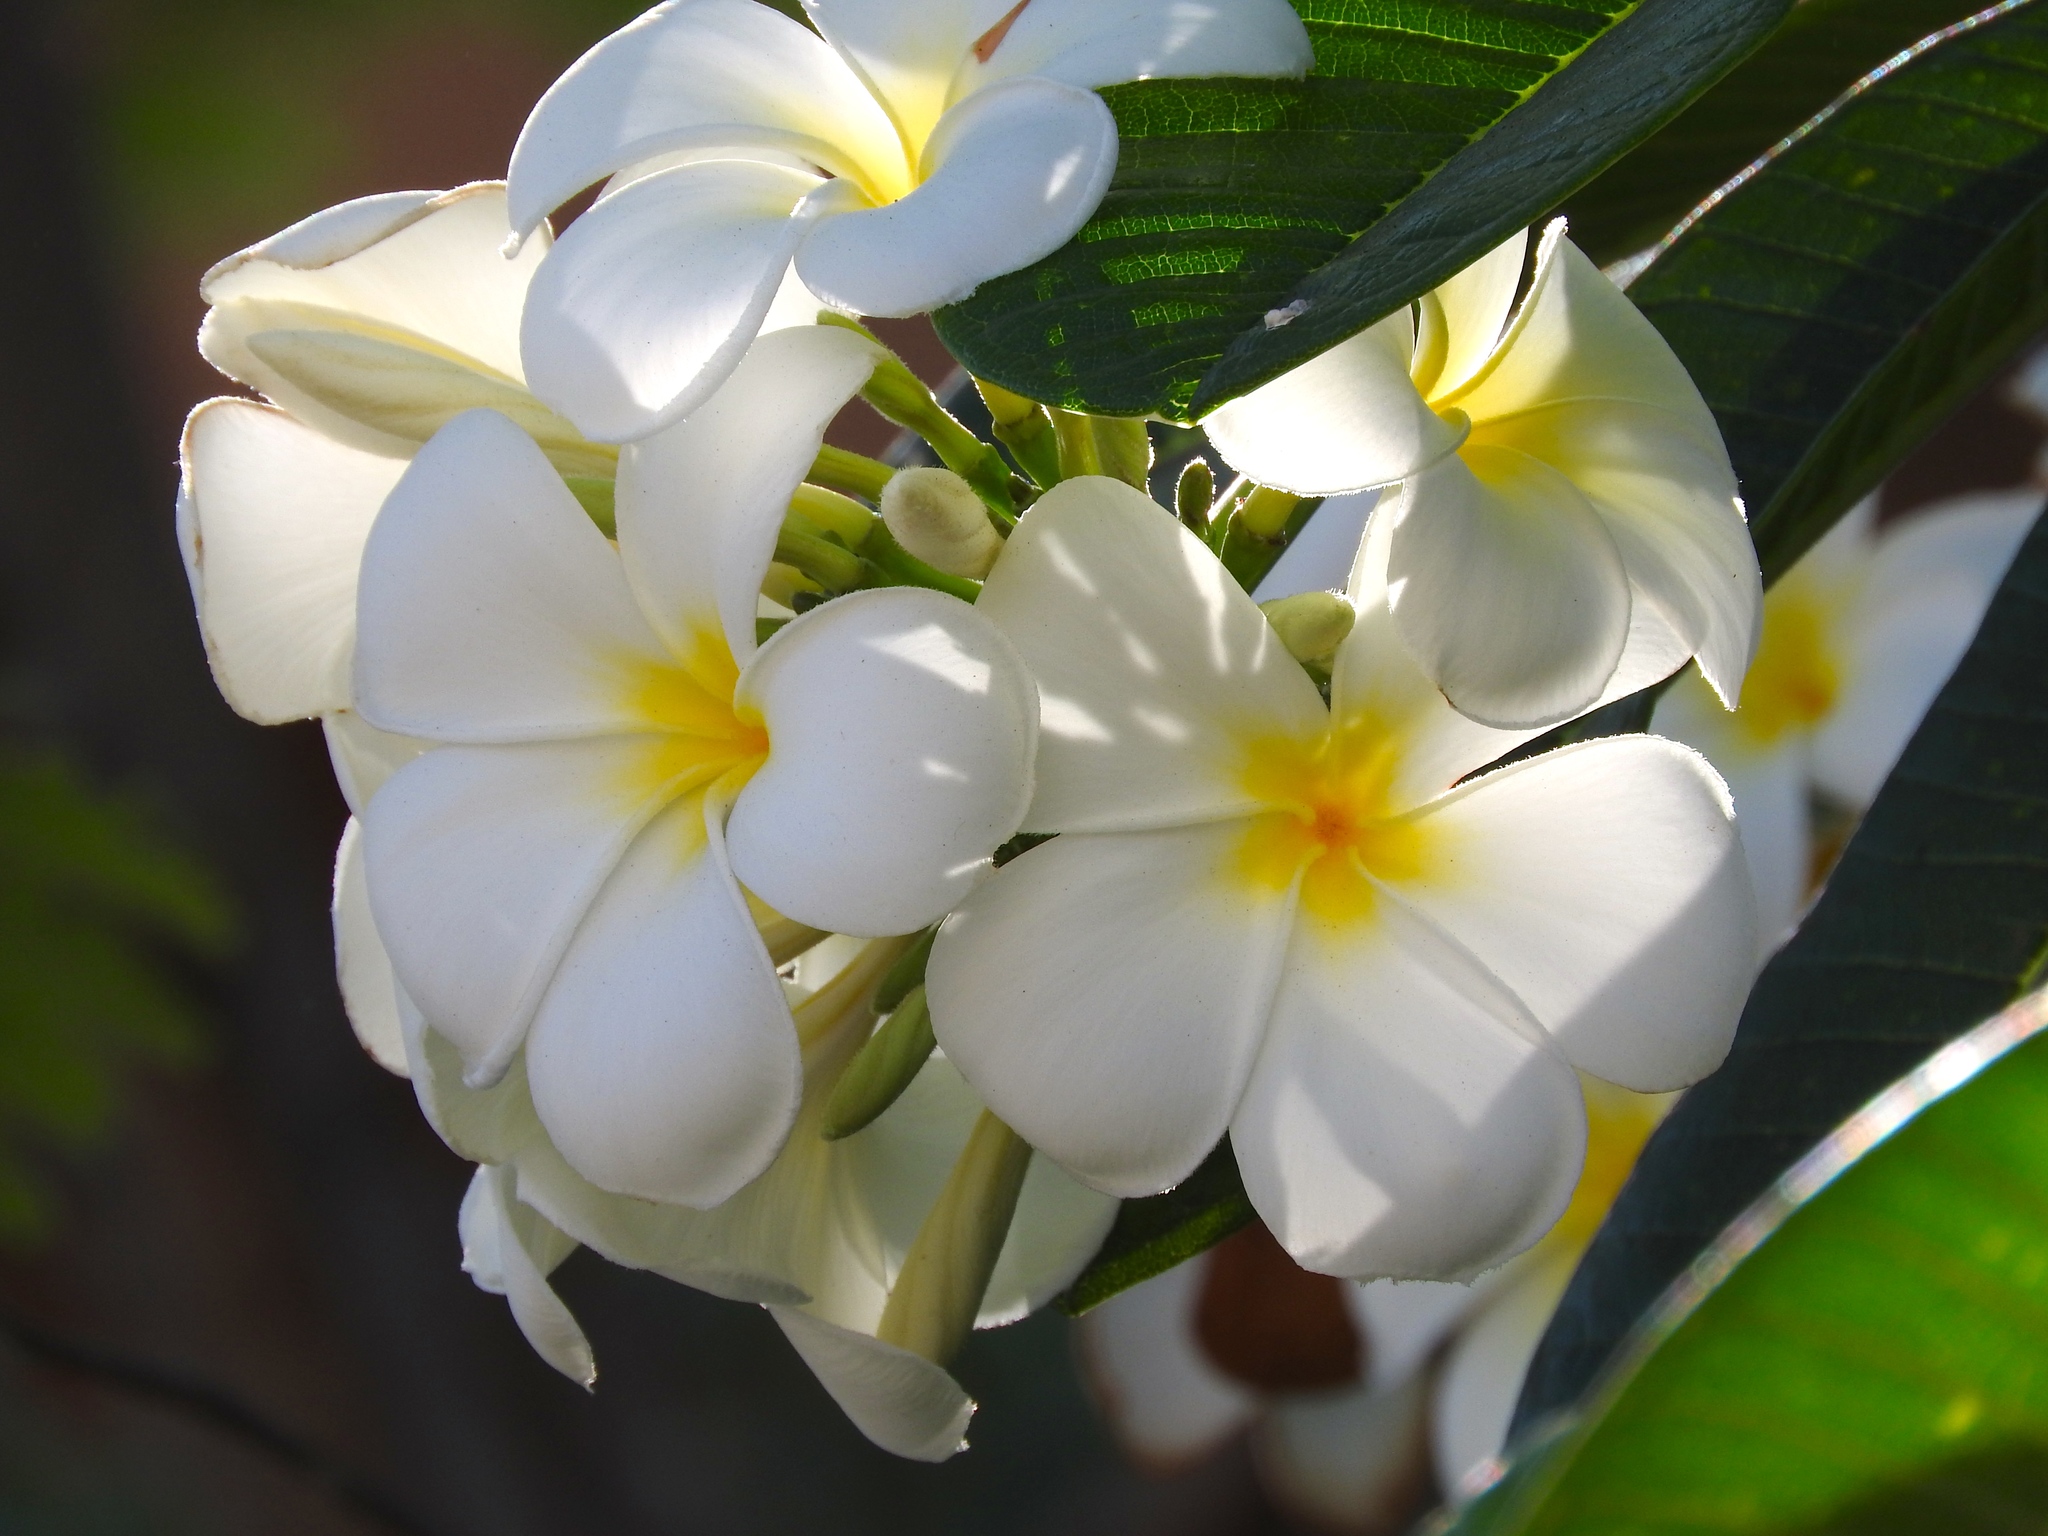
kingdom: Plantae
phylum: Tracheophyta
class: Magnoliopsida
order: Gentianales
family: Apocynaceae
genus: Plumeria
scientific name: Plumeria rubra
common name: Pagoda-tree
